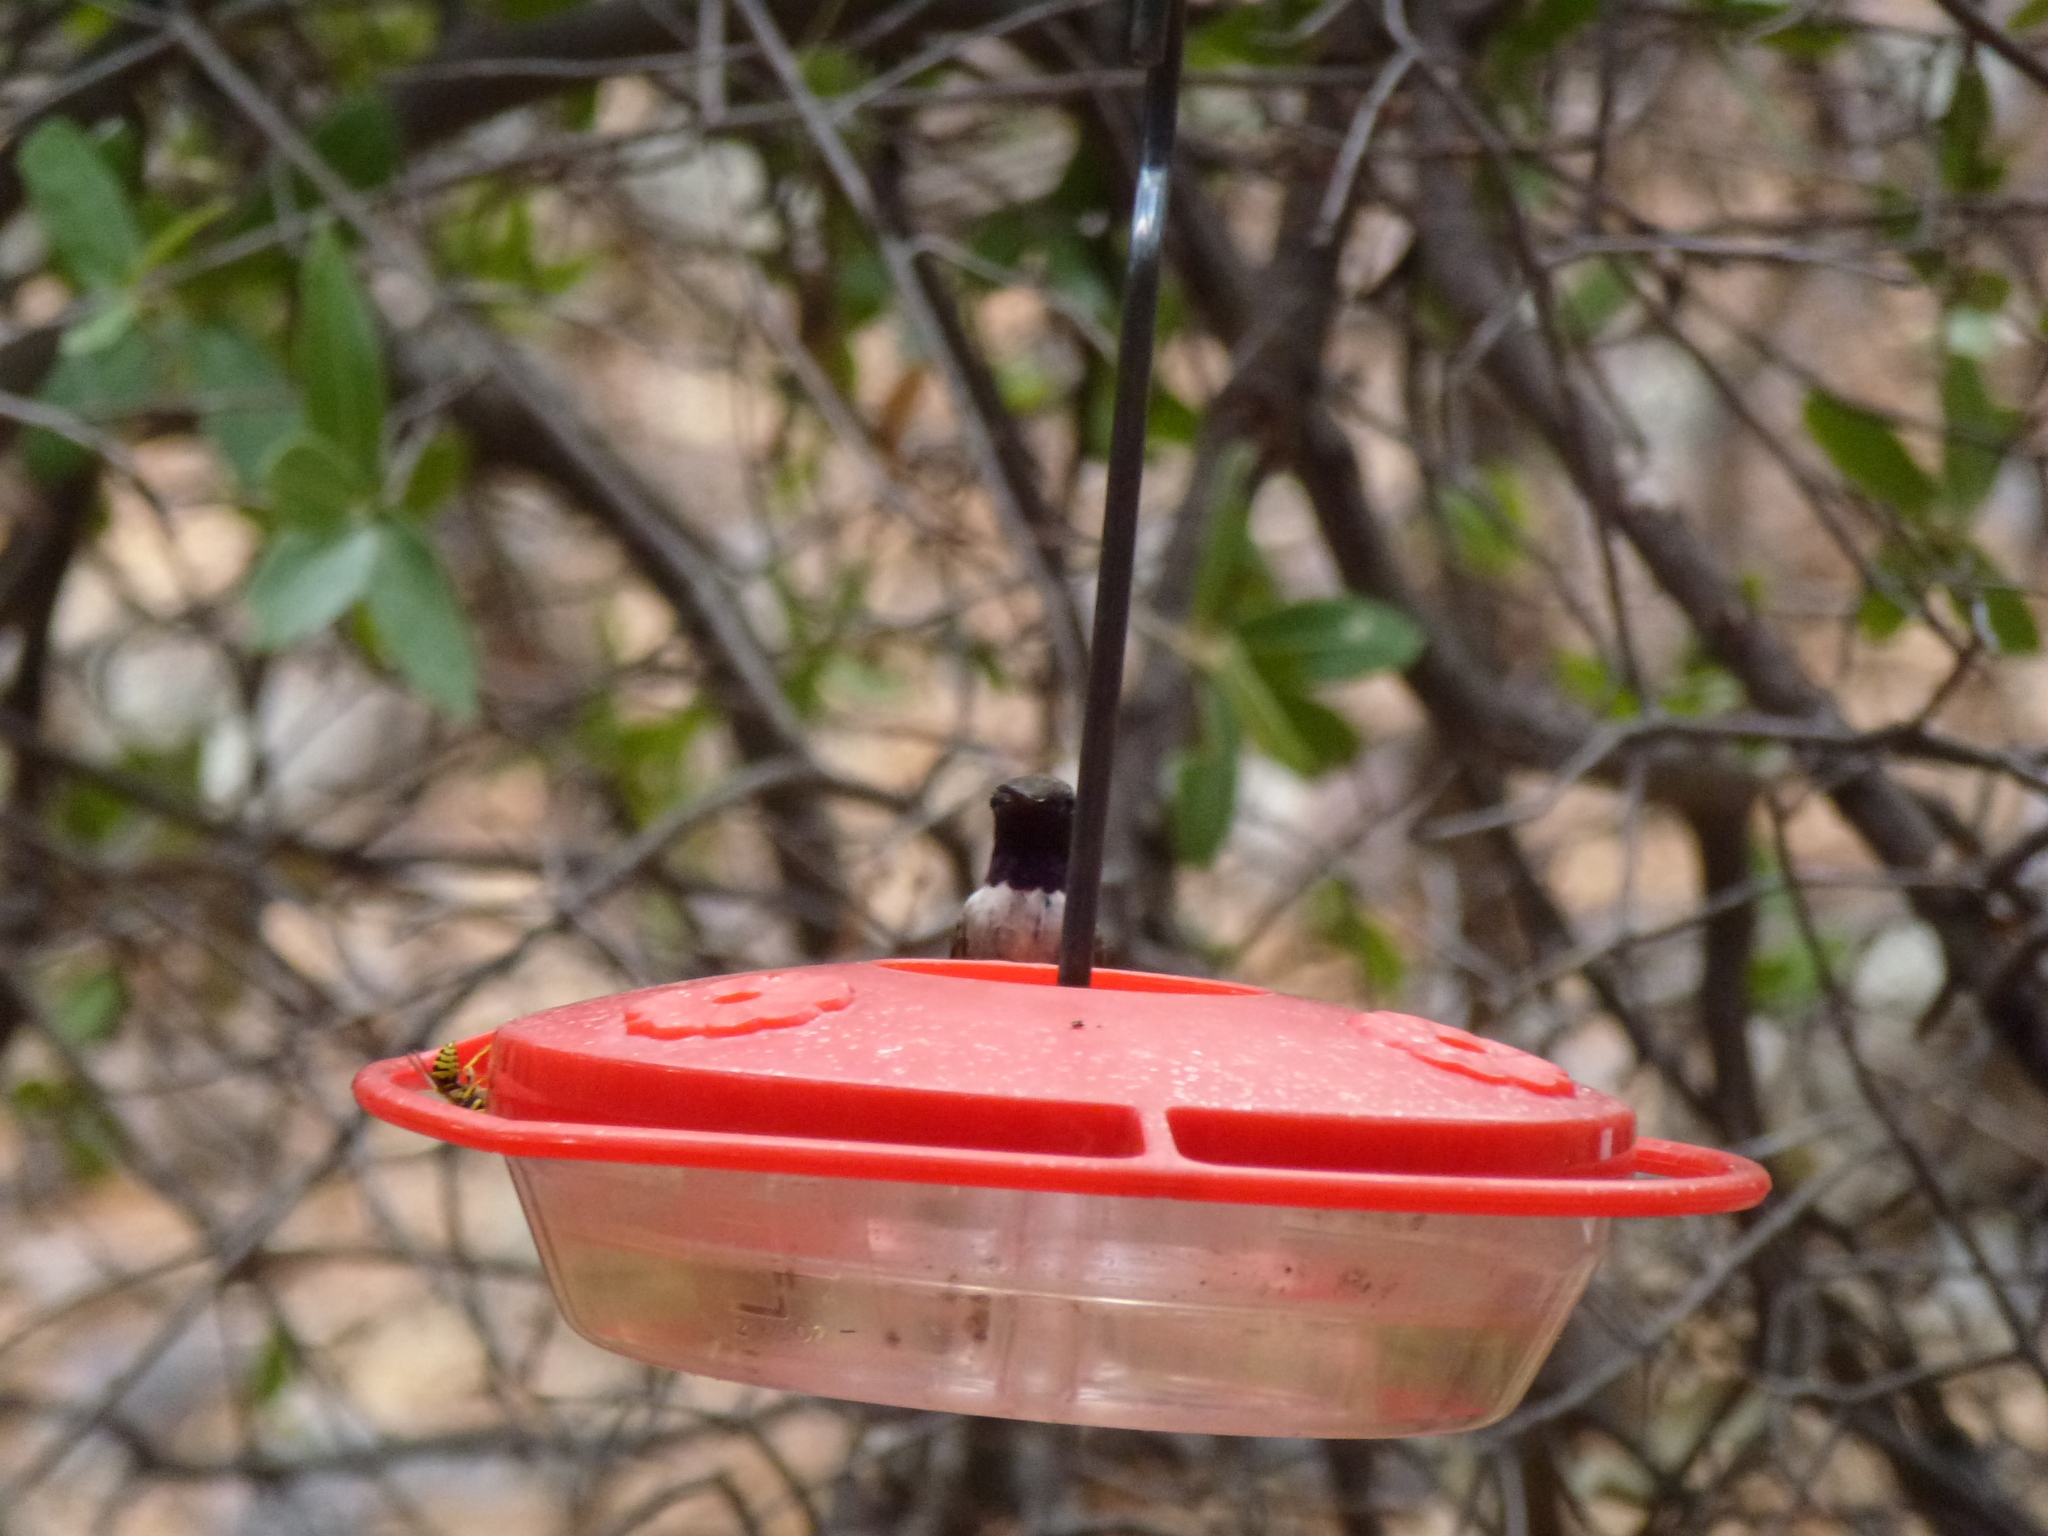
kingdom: Animalia
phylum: Chordata
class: Aves
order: Apodiformes
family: Trochilidae
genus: Archilochus
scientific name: Archilochus alexandri
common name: Black-chinned hummingbird
